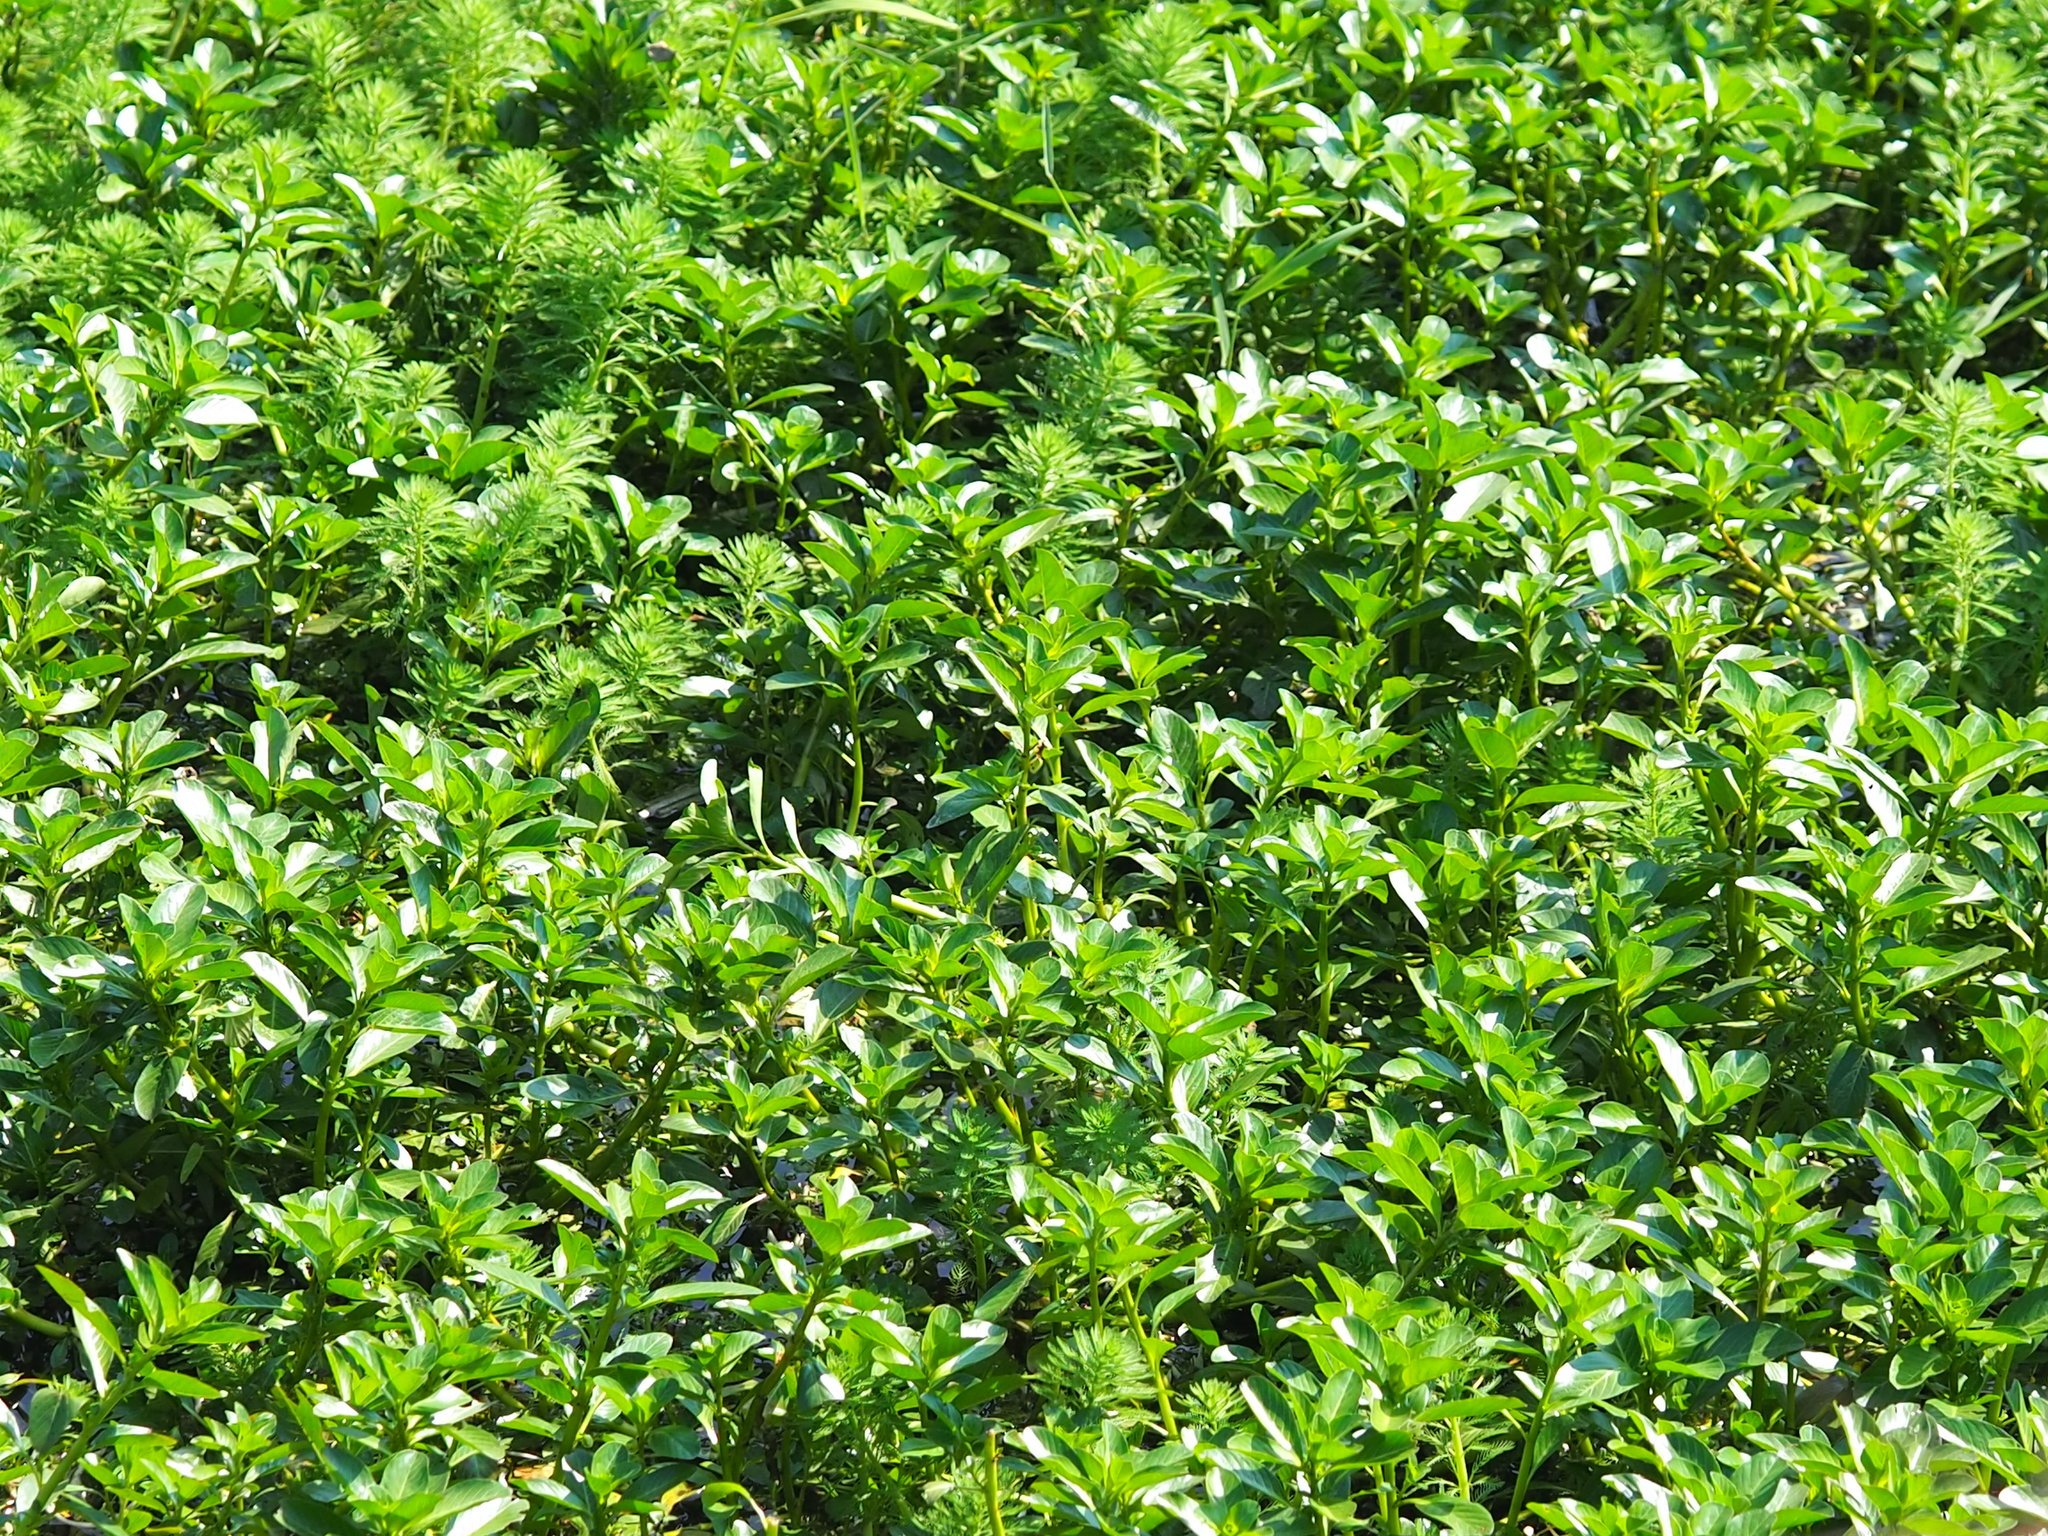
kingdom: Plantae
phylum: Tracheophyta
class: Magnoliopsida
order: Myrtales
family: Onagraceae
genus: Ludwigia
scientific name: Ludwigia taiwanensis
